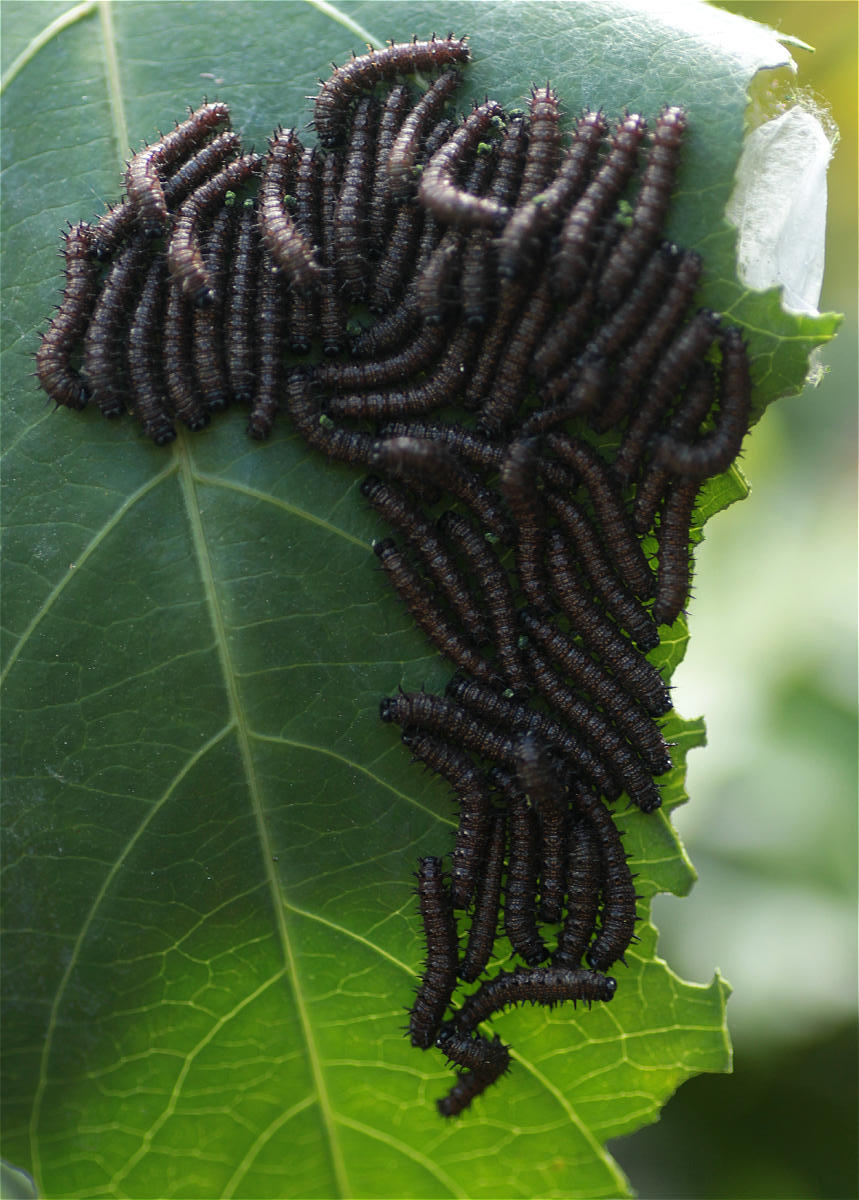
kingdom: Animalia
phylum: Arthropoda
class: Insecta
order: Lepidoptera
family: Nymphalidae
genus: Dione
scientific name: Dione juno
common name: Juno silverspot
